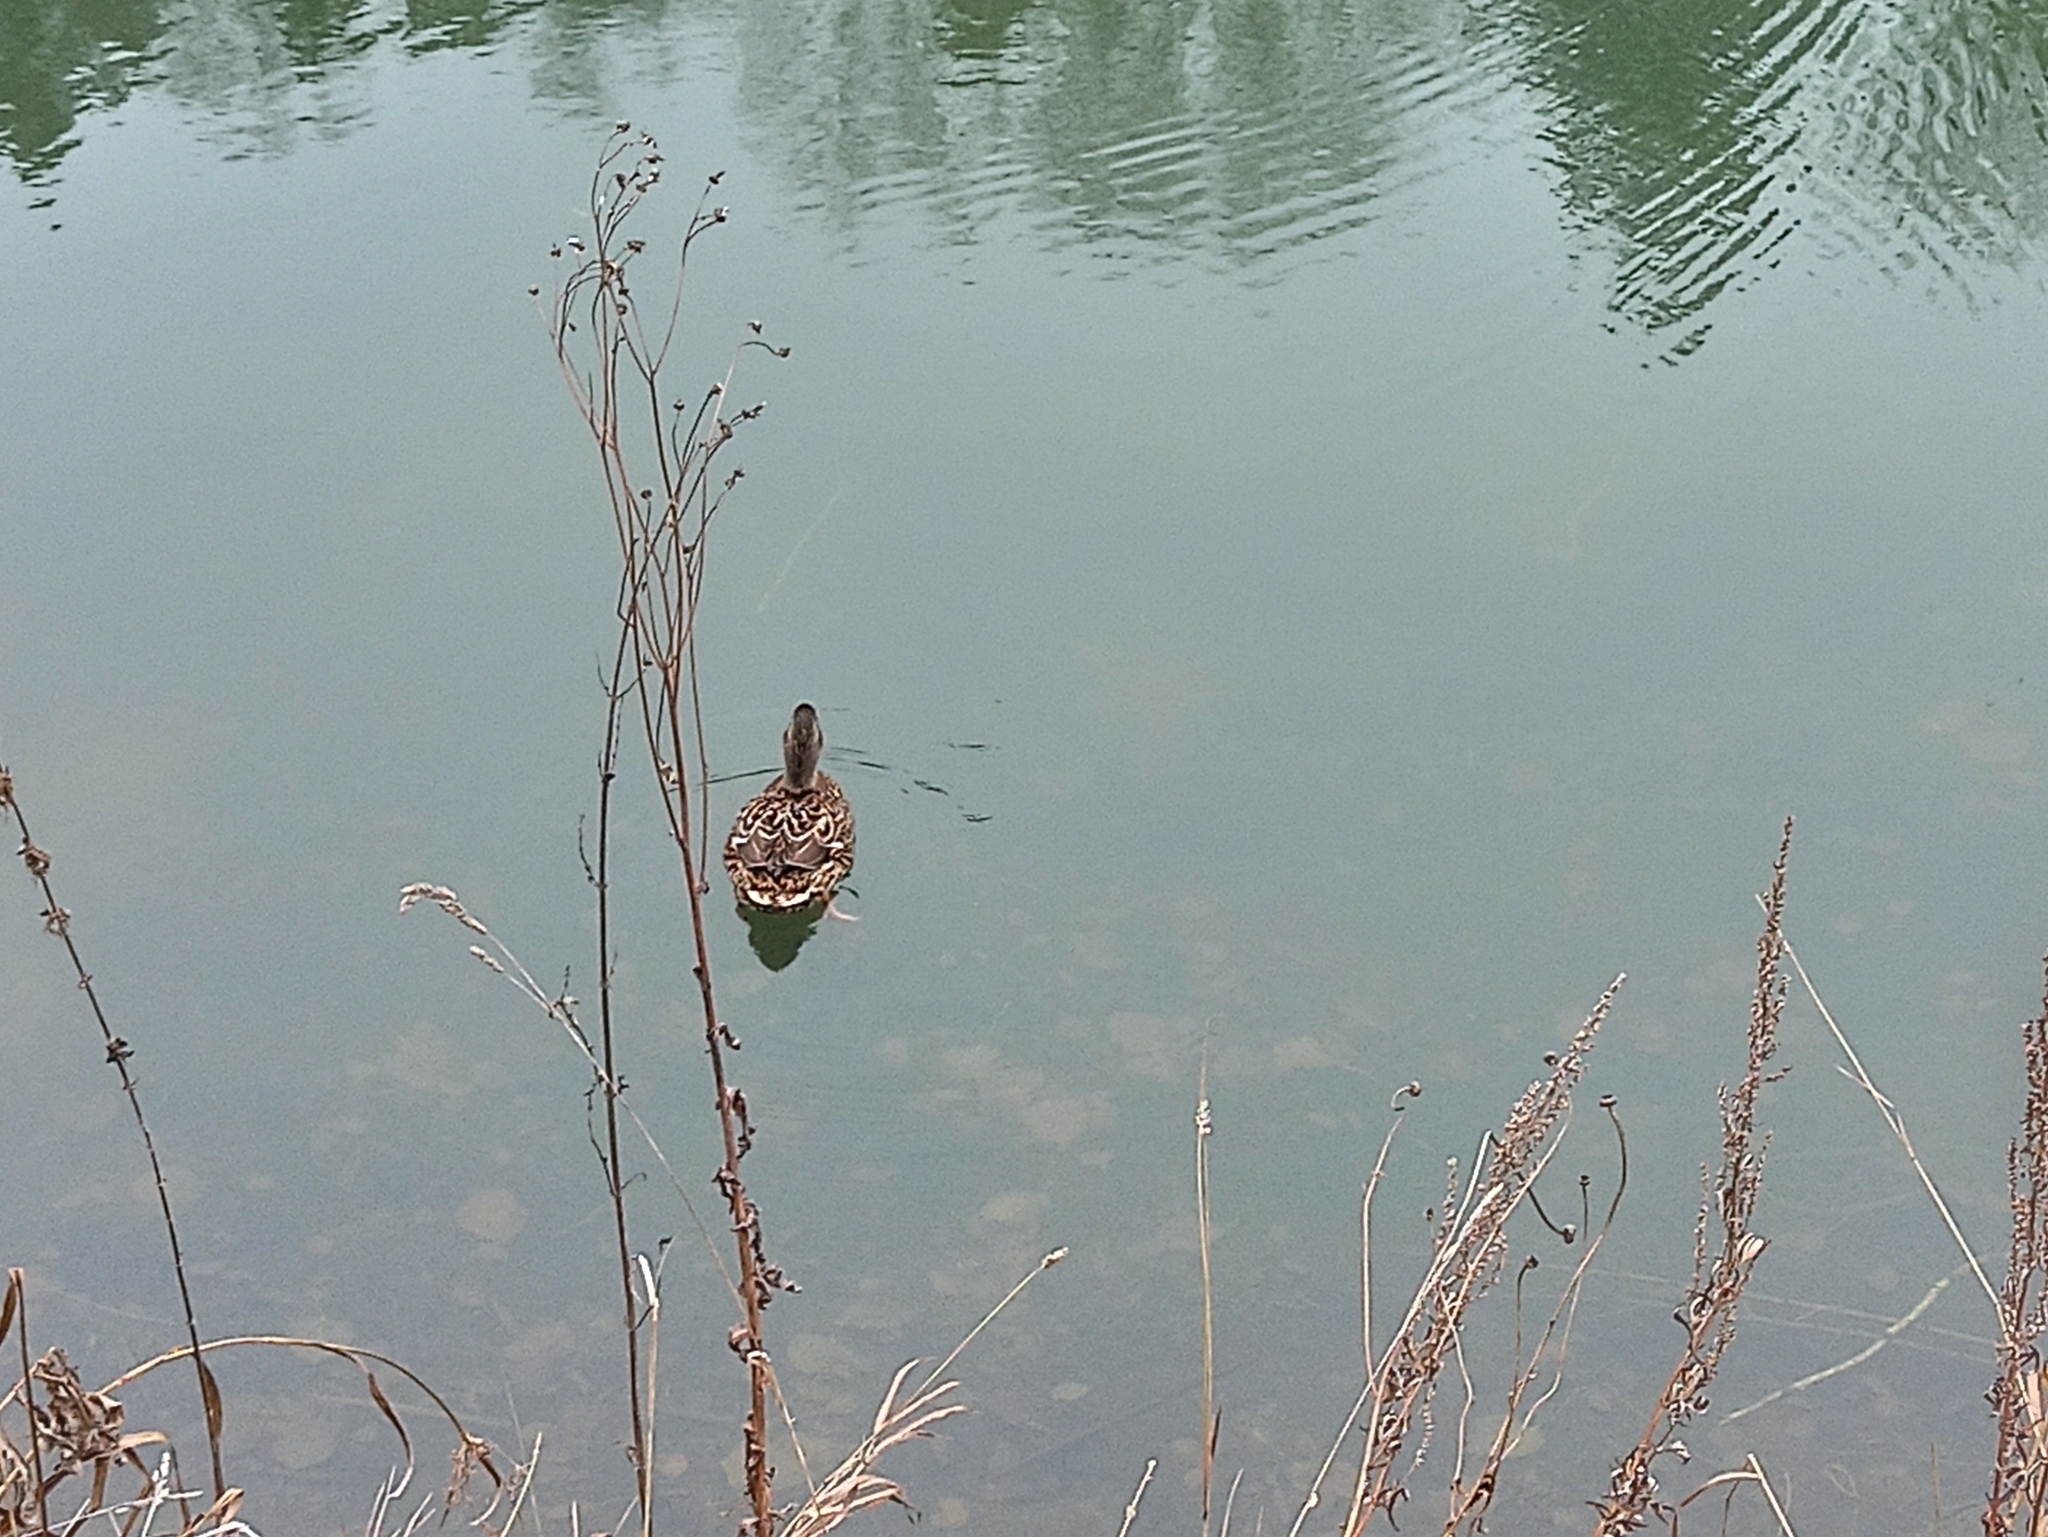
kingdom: Animalia
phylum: Chordata
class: Aves
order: Anseriformes
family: Anatidae
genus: Anas
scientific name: Anas platyrhynchos
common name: Mallard
